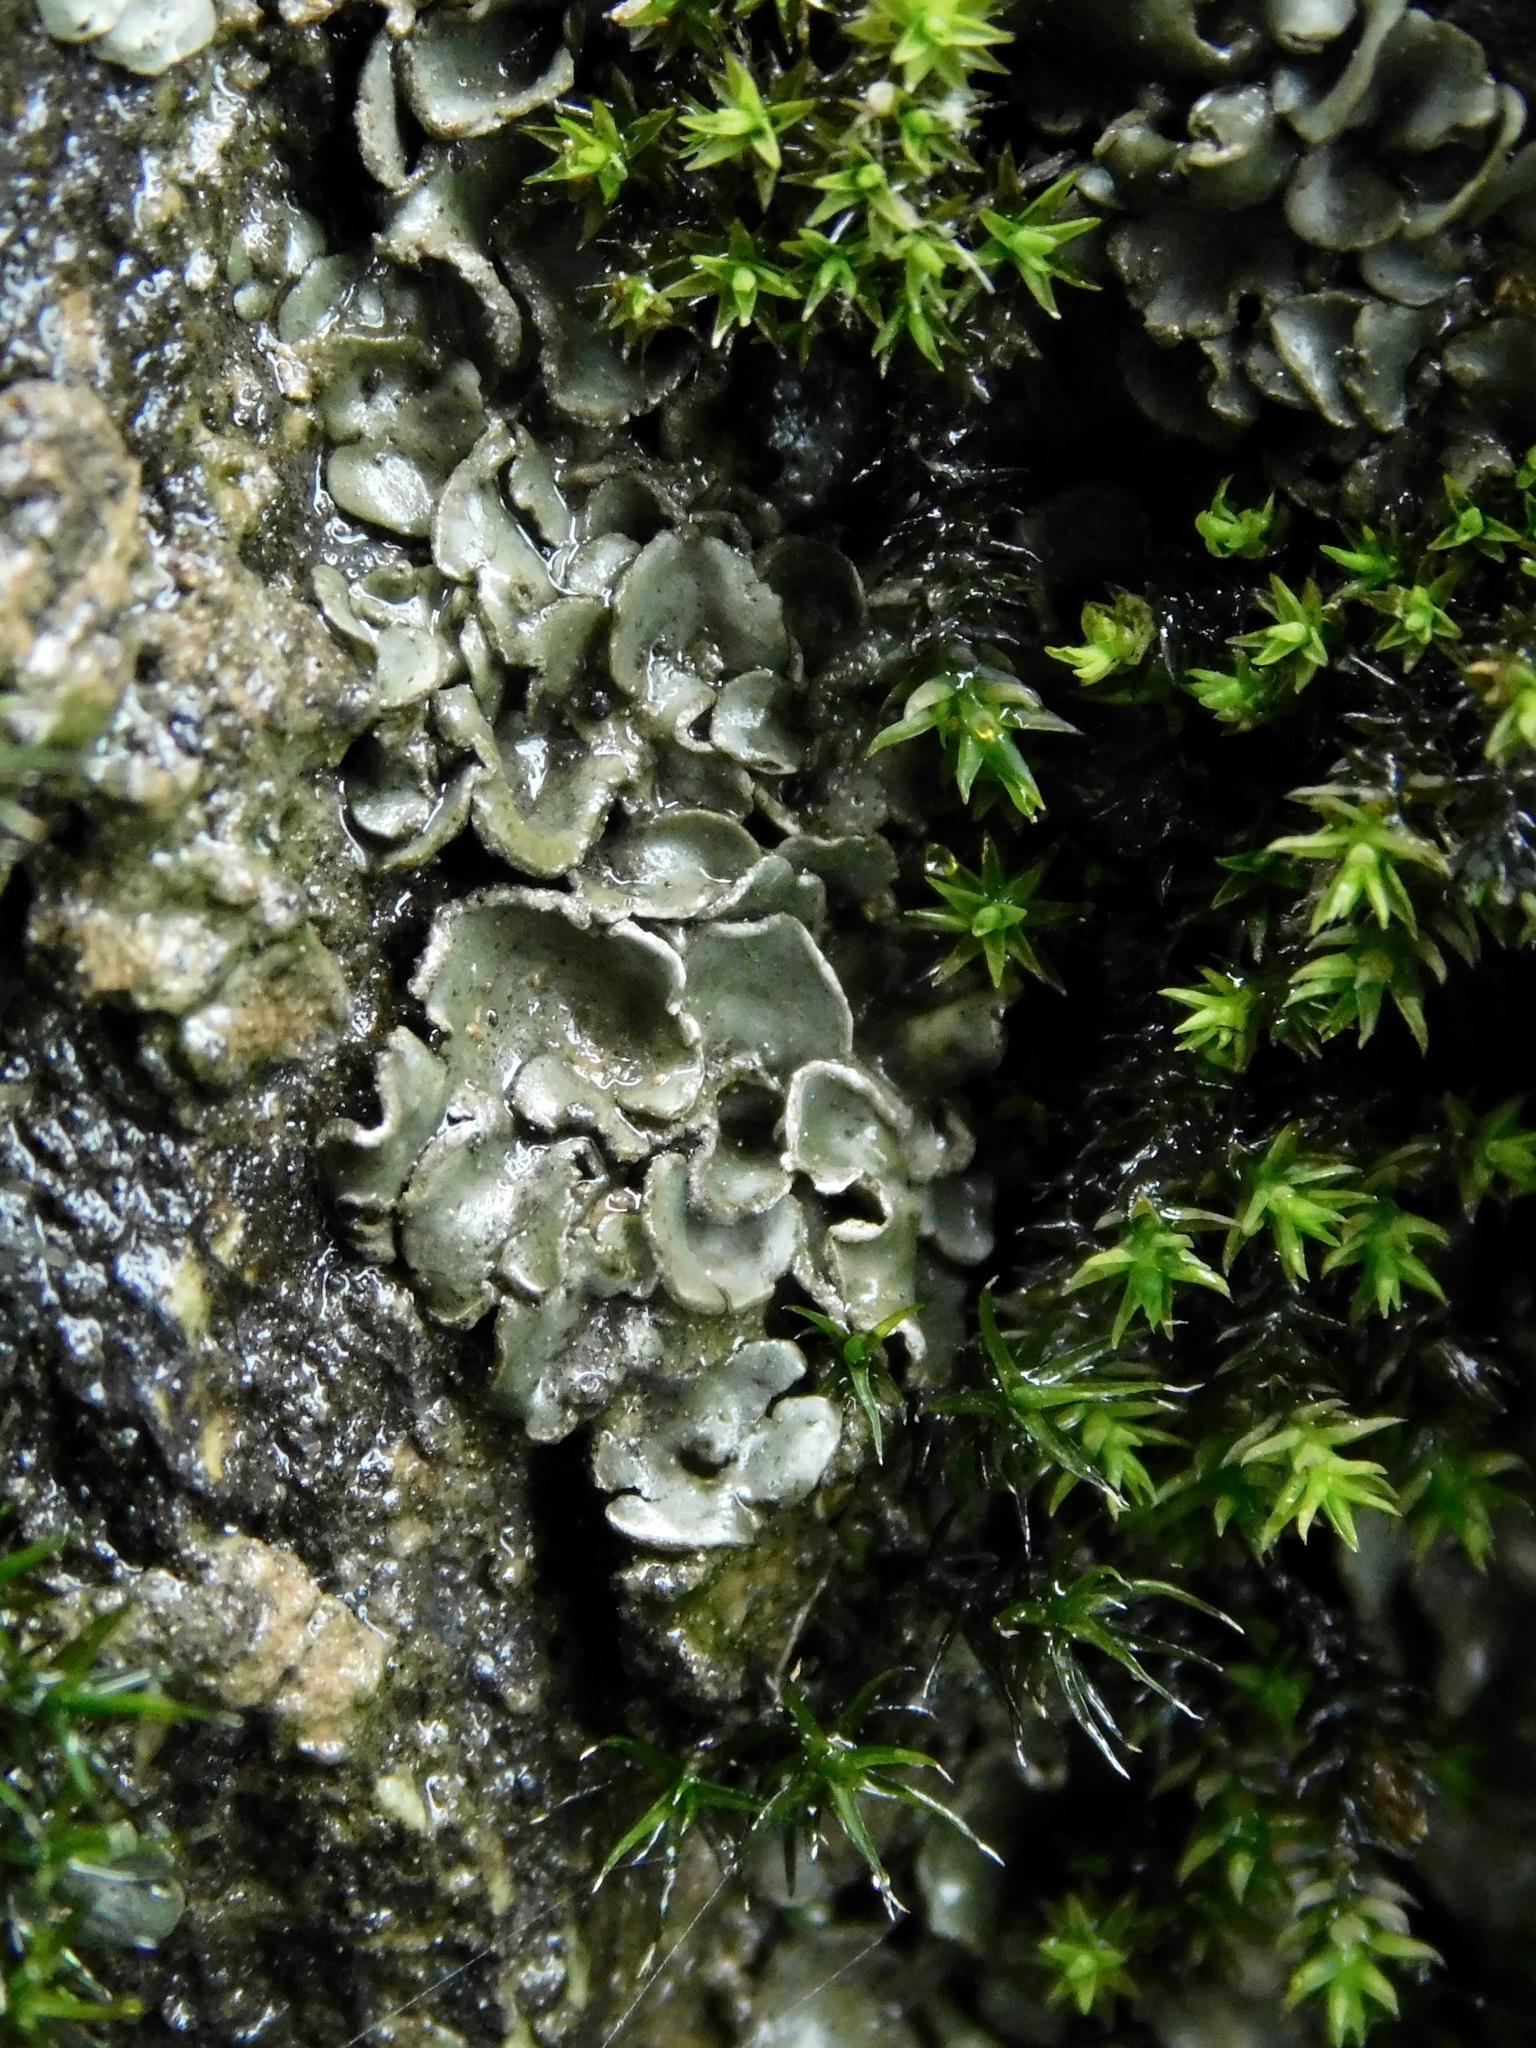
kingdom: Fungi
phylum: Ascomycota
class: Lichinomycetes
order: Lichinales
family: Peltulaceae
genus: Peltula
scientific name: Peltula euploca
